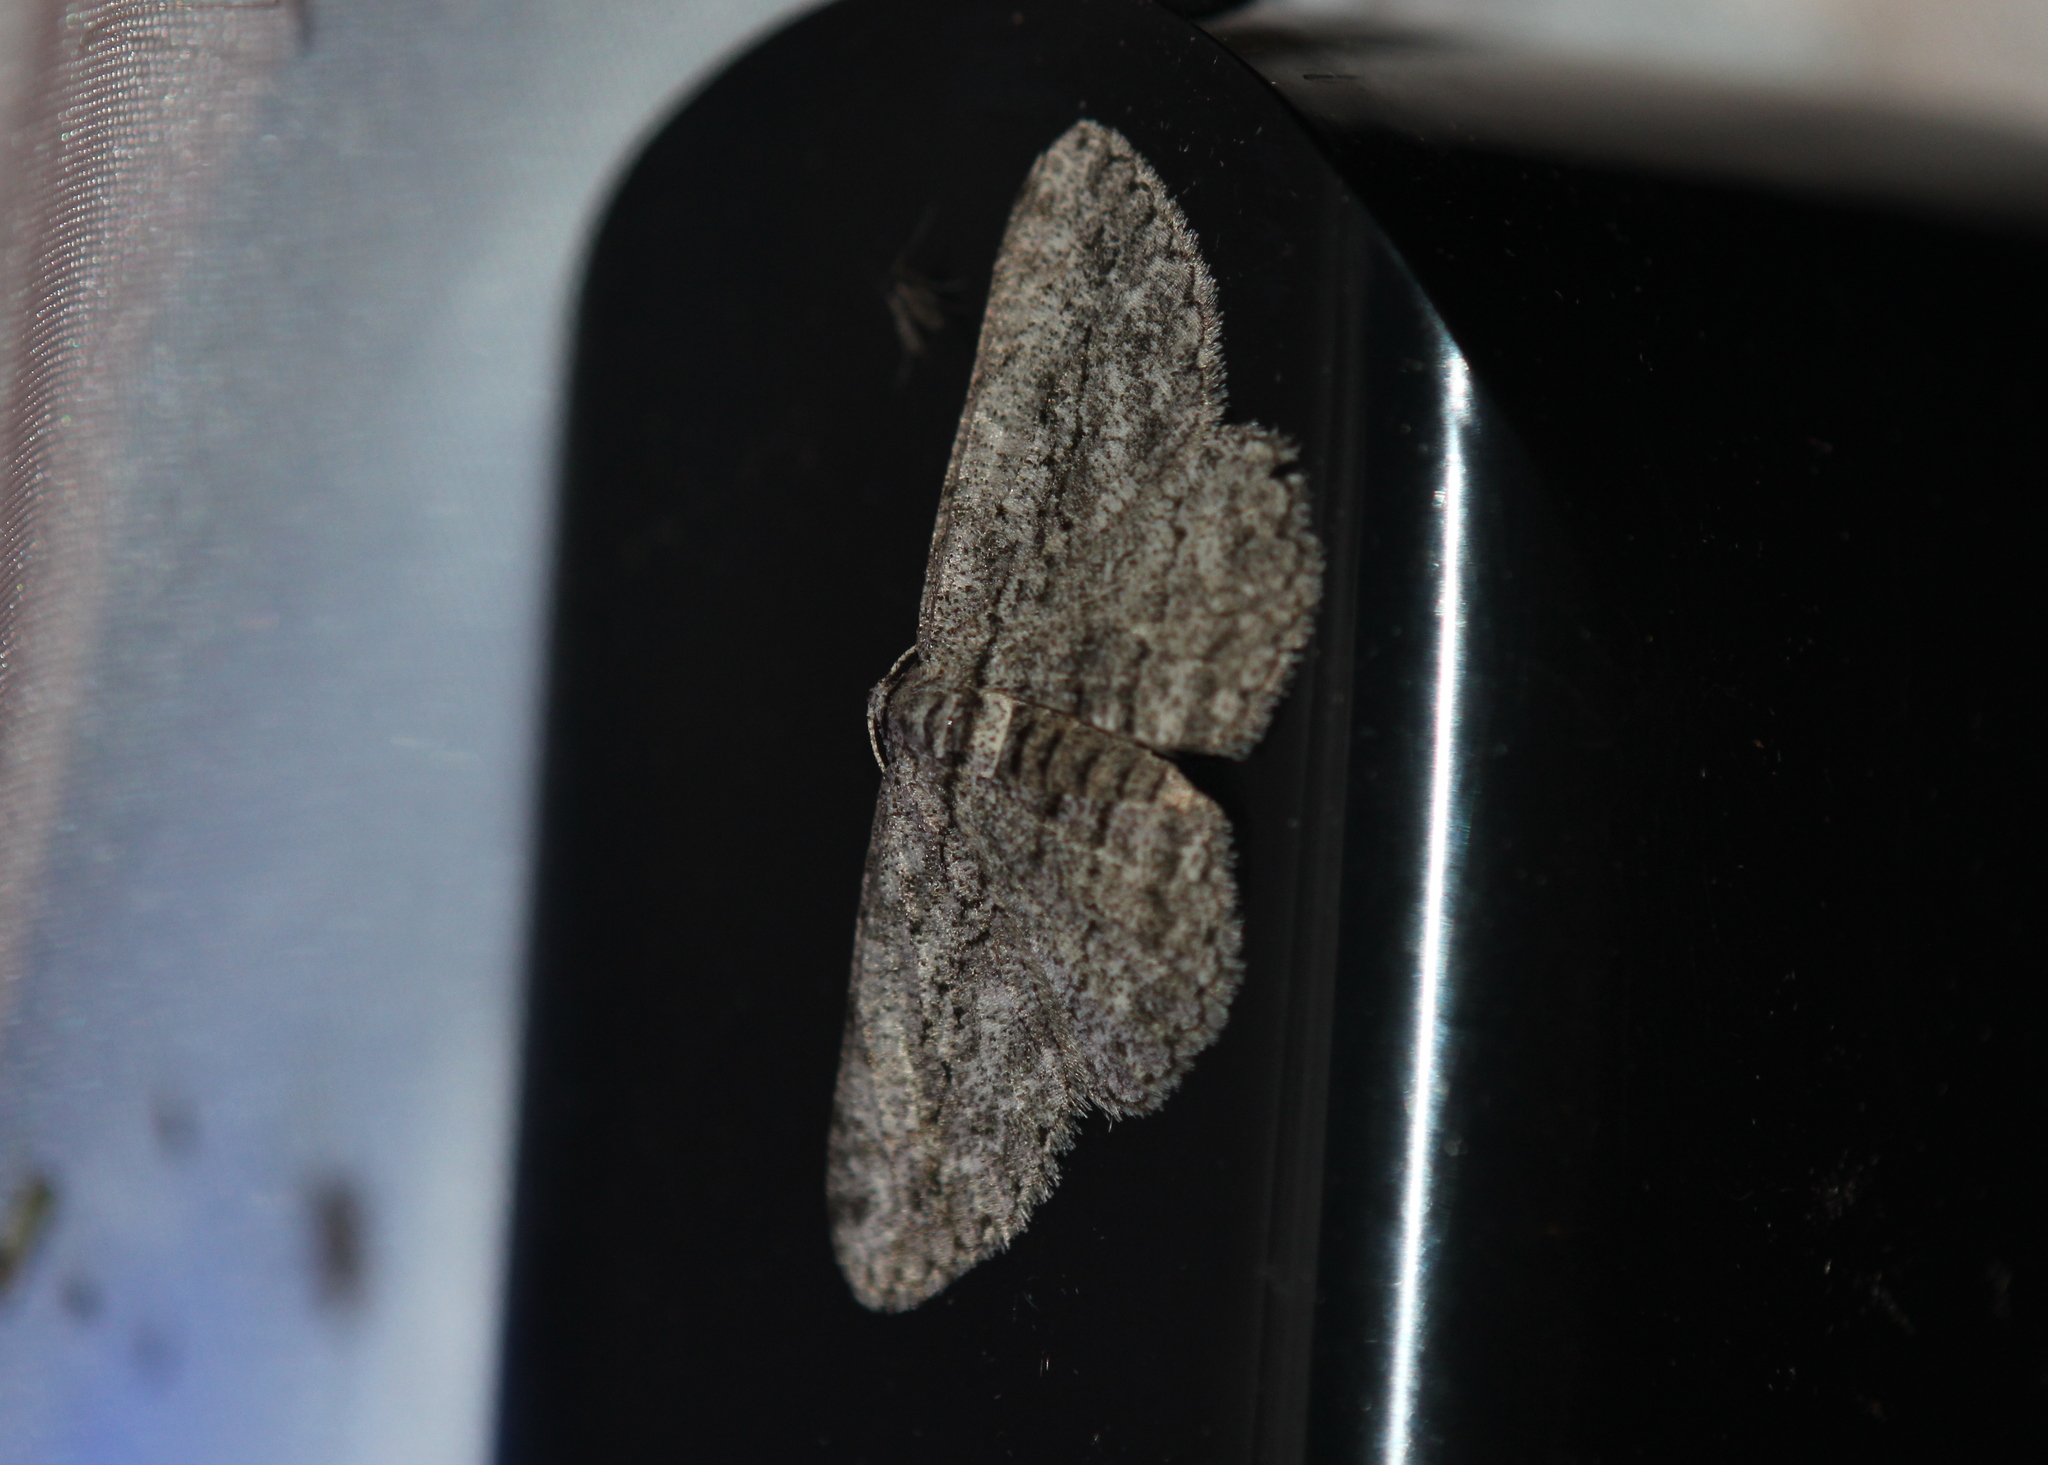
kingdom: Animalia
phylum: Arthropoda
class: Insecta
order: Lepidoptera
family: Geometridae
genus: Anavitrinella
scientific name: Anavitrinella pampinaria
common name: Common gray
